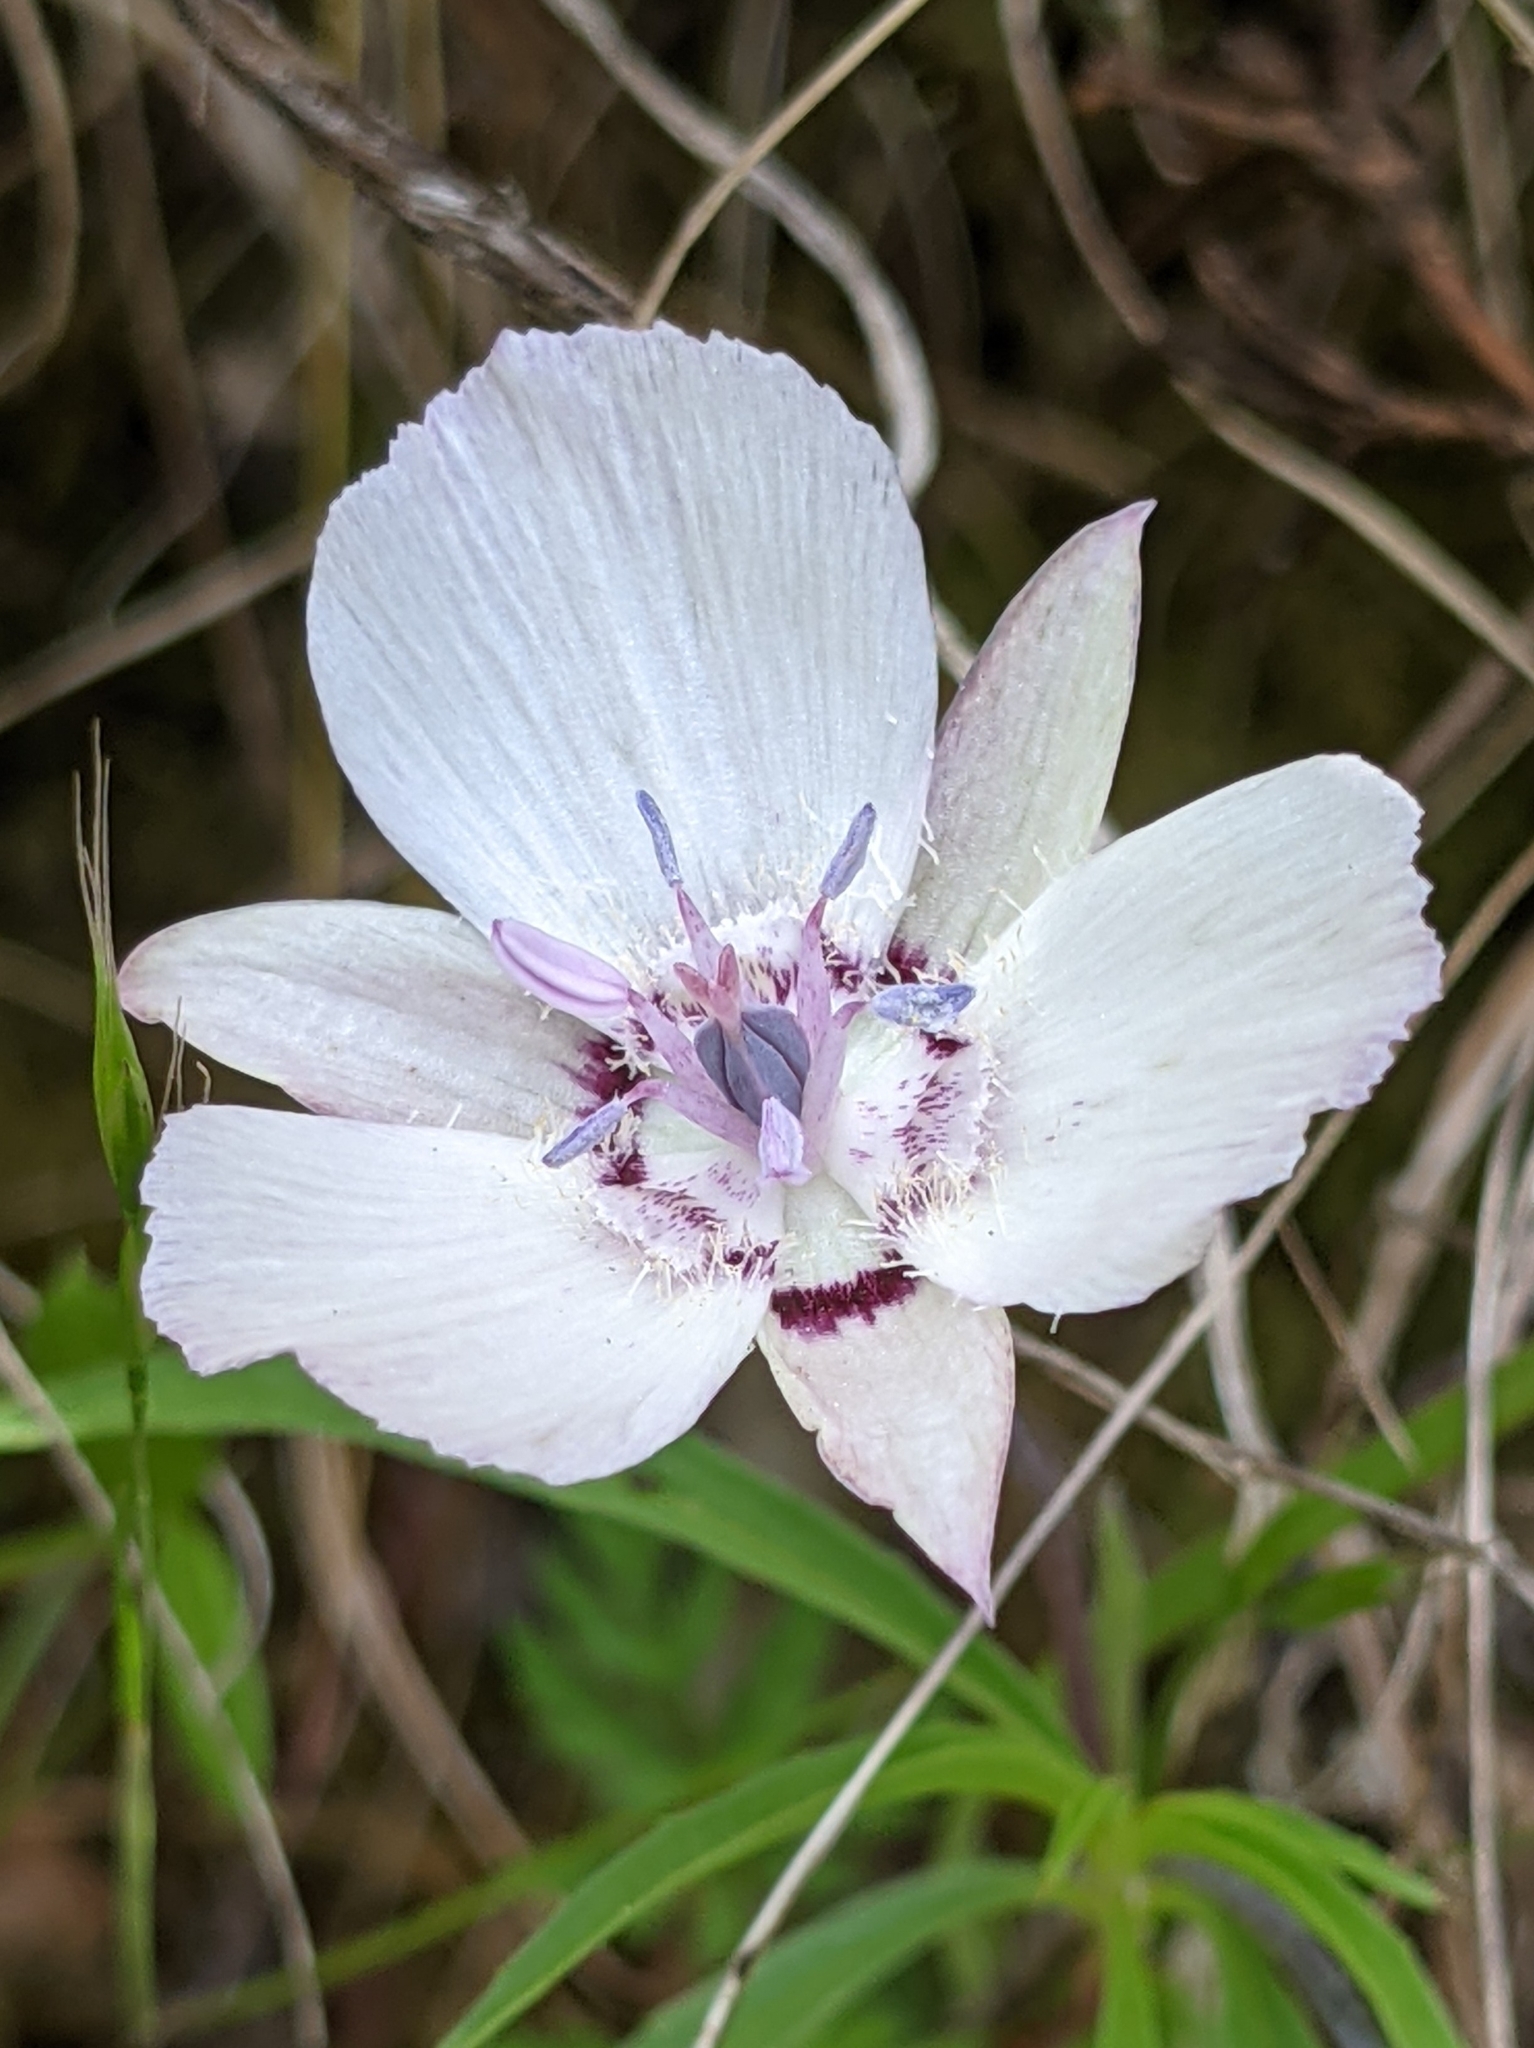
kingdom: Plantae
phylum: Tracheophyta
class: Liliopsida
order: Liliales
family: Liliaceae
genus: Calochortus
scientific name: Calochortus umbellatus
